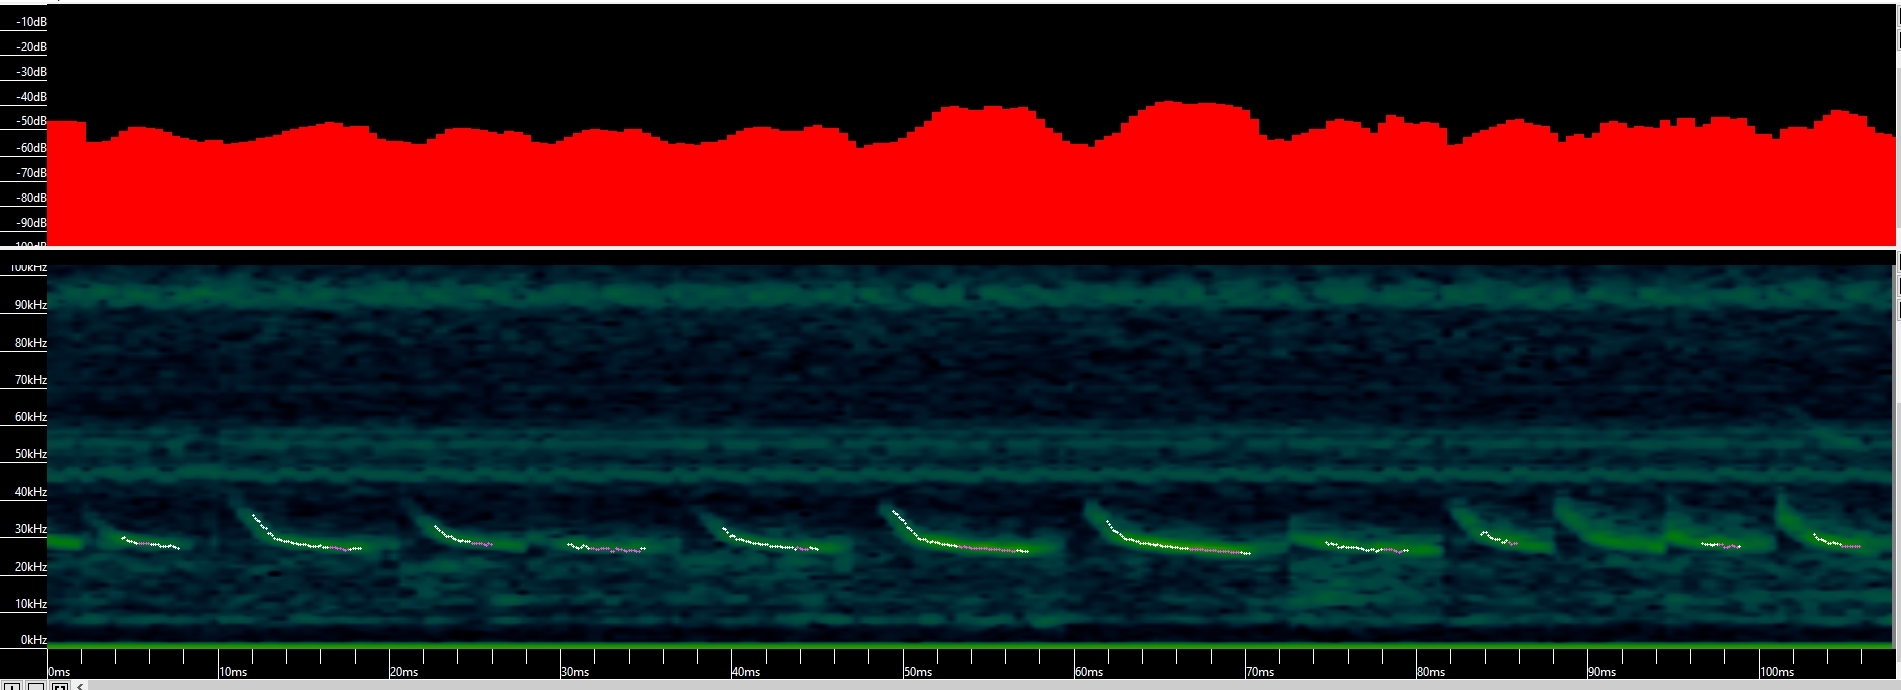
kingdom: Animalia
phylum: Chordata
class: Mammalia
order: Chiroptera
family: Vespertilionidae
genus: Lasionycteris
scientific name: Lasionycteris noctivagans
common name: Silver-haired bat
